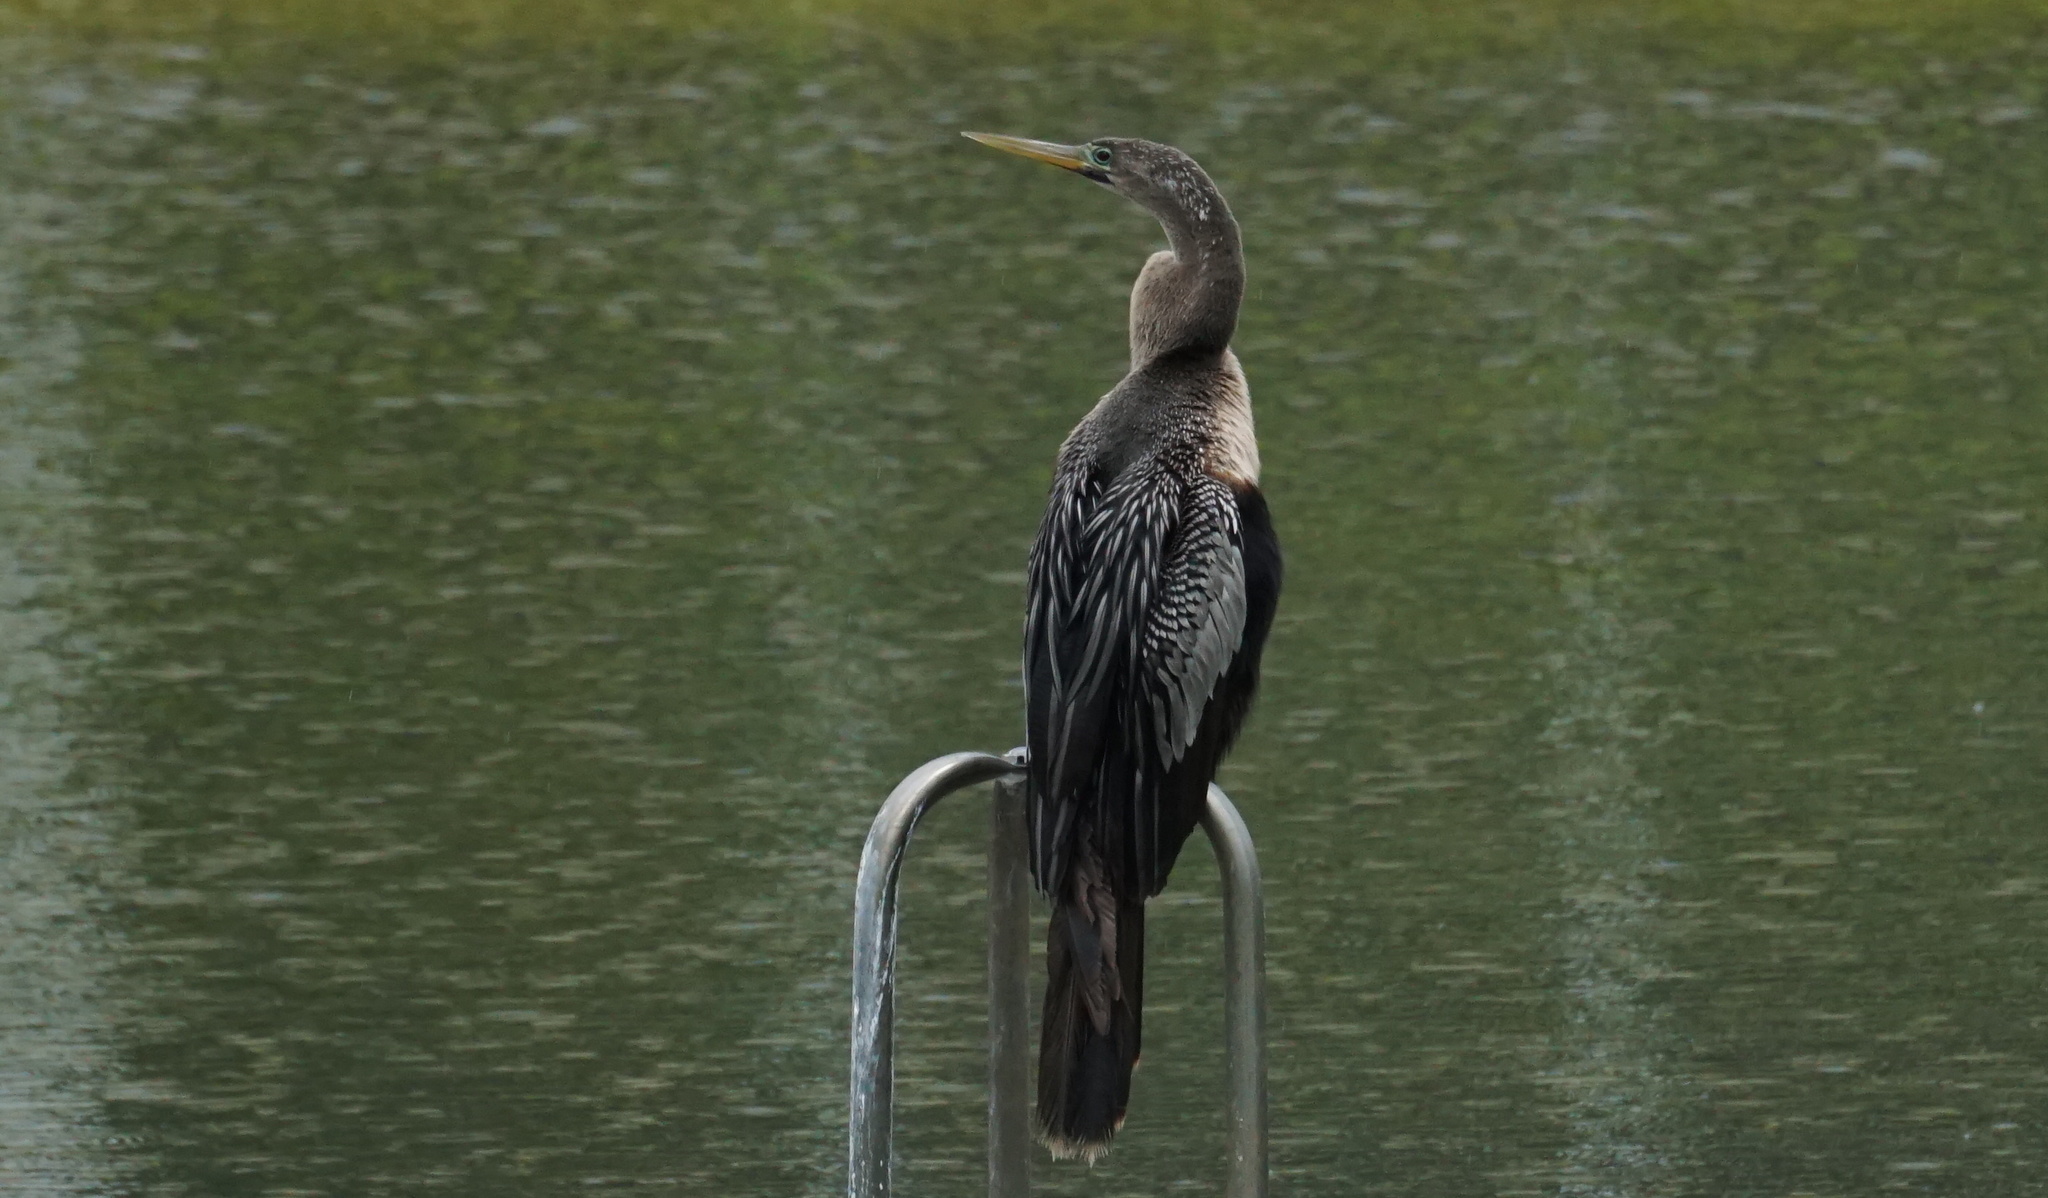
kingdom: Animalia
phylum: Chordata
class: Aves
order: Suliformes
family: Anhingidae
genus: Anhinga
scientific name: Anhinga anhinga
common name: Anhinga
